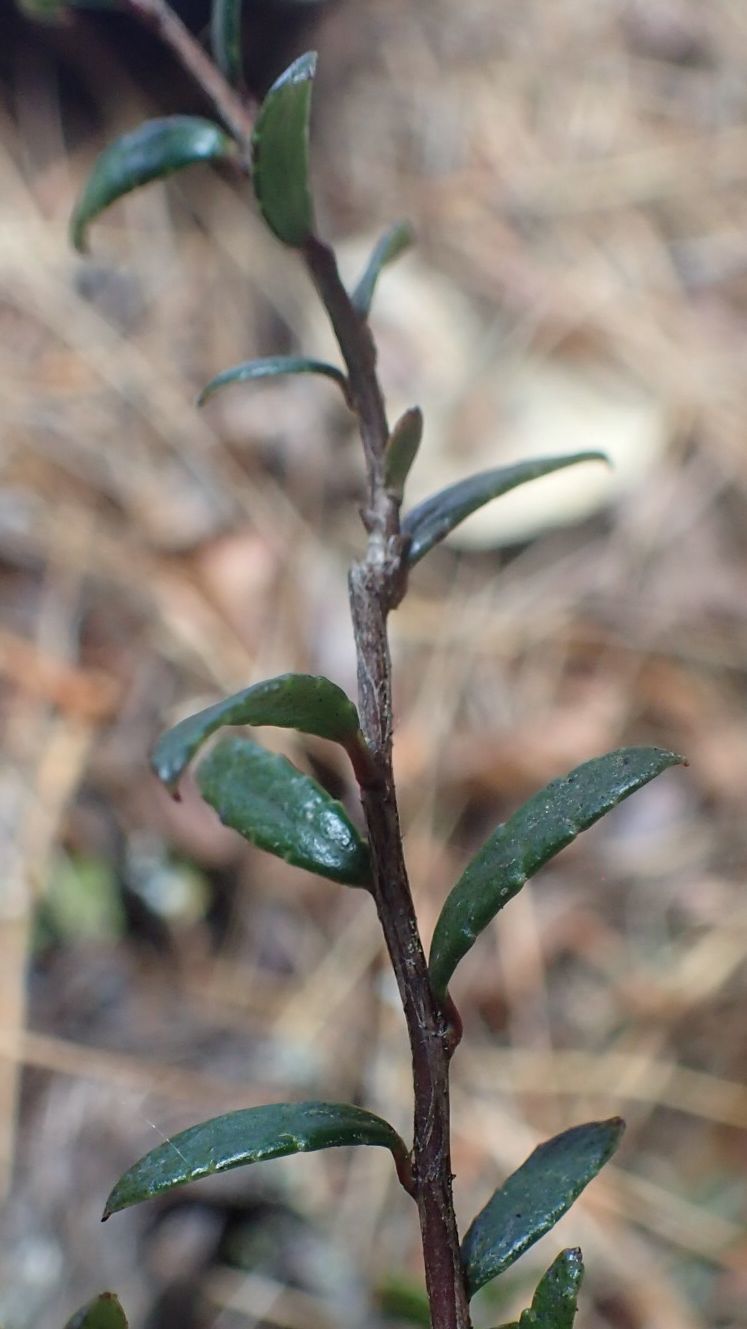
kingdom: Plantae
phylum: Tracheophyta
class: Magnoliopsida
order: Ericales
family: Ericaceae
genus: Gaultheria
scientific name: Gaultheria macrostigma
